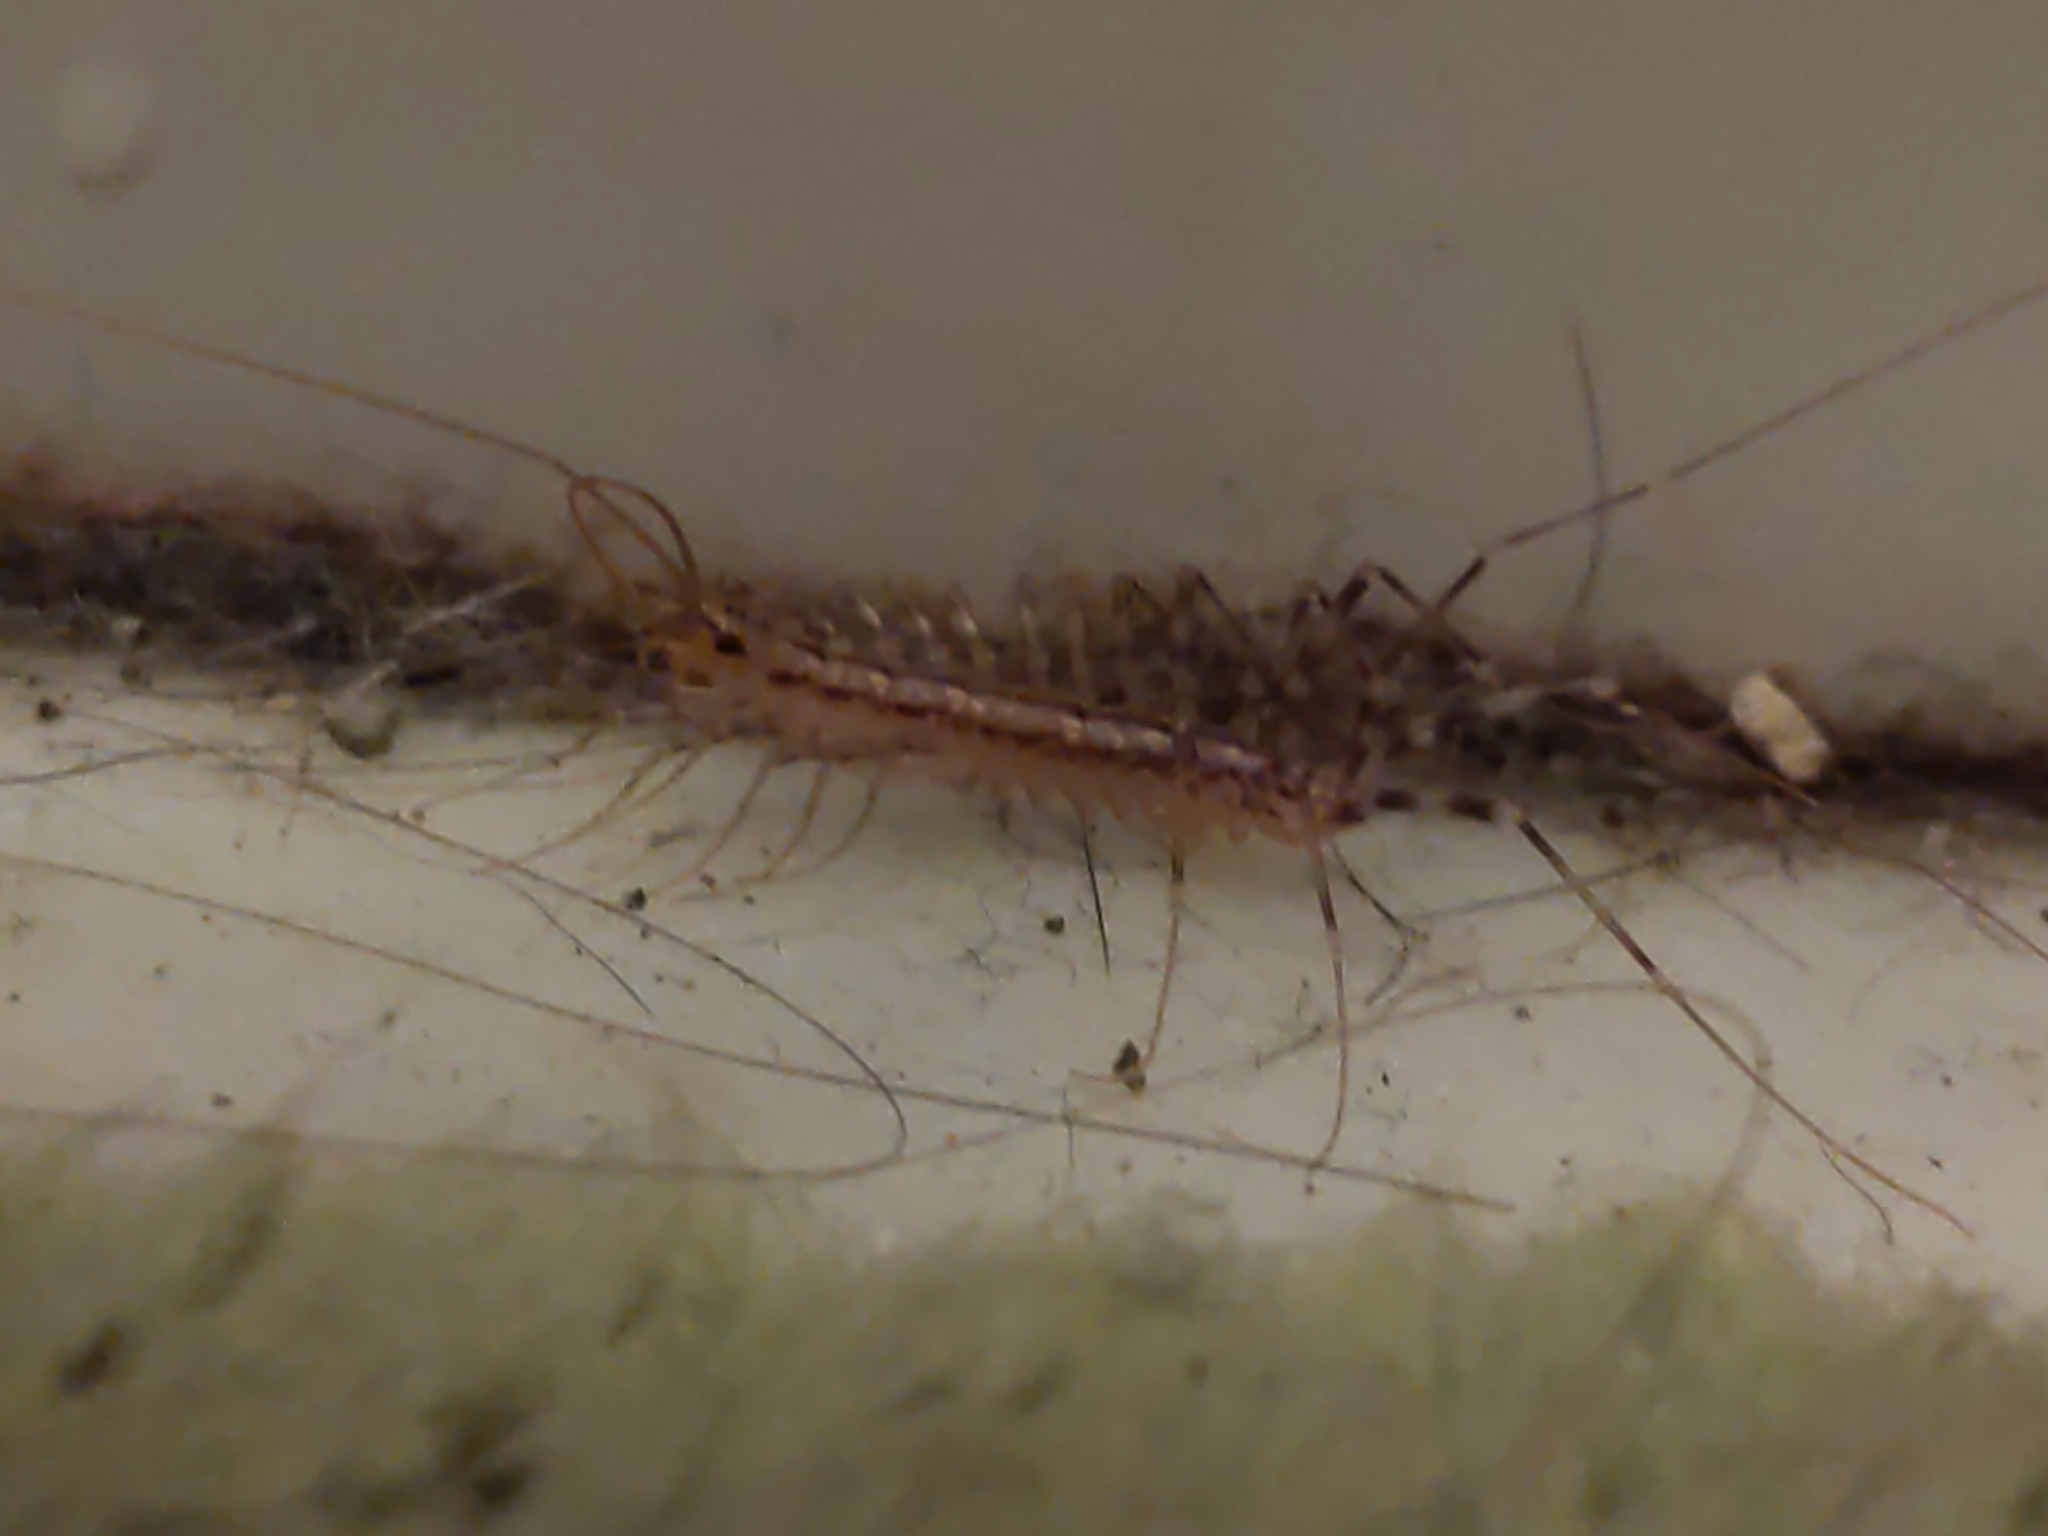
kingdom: Animalia
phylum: Arthropoda
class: Chilopoda
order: Scutigeromorpha
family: Scutigeridae
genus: Scutigera
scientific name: Scutigera coleoptrata
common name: House centipede
